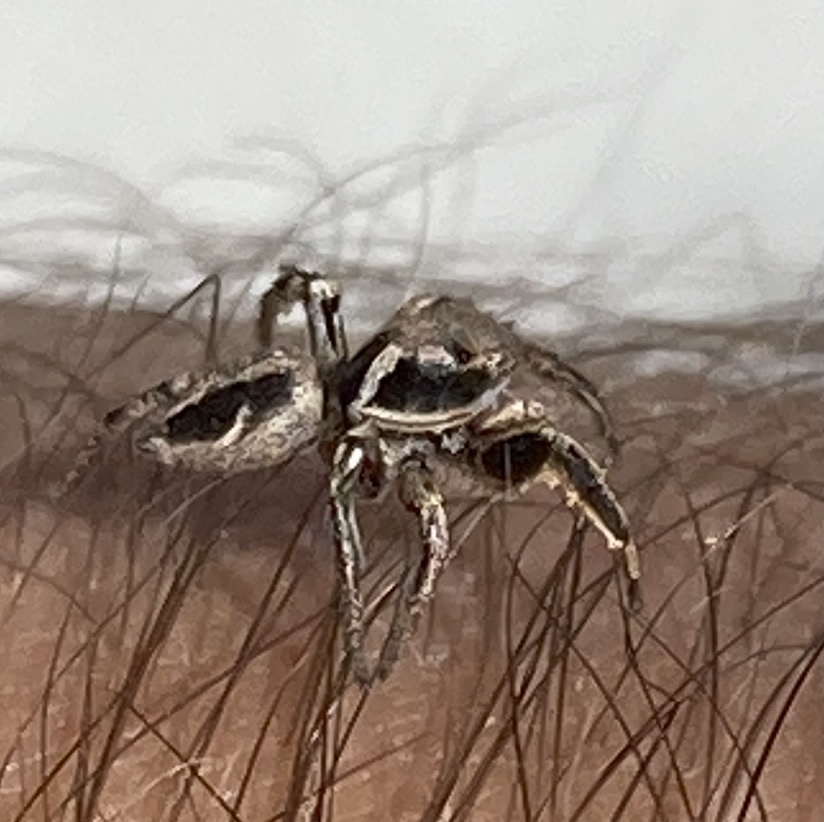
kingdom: Animalia
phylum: Arthropoda
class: Arachnida
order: Araneae
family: Salticidae
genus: Habronattus
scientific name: Habronattus klauseri
